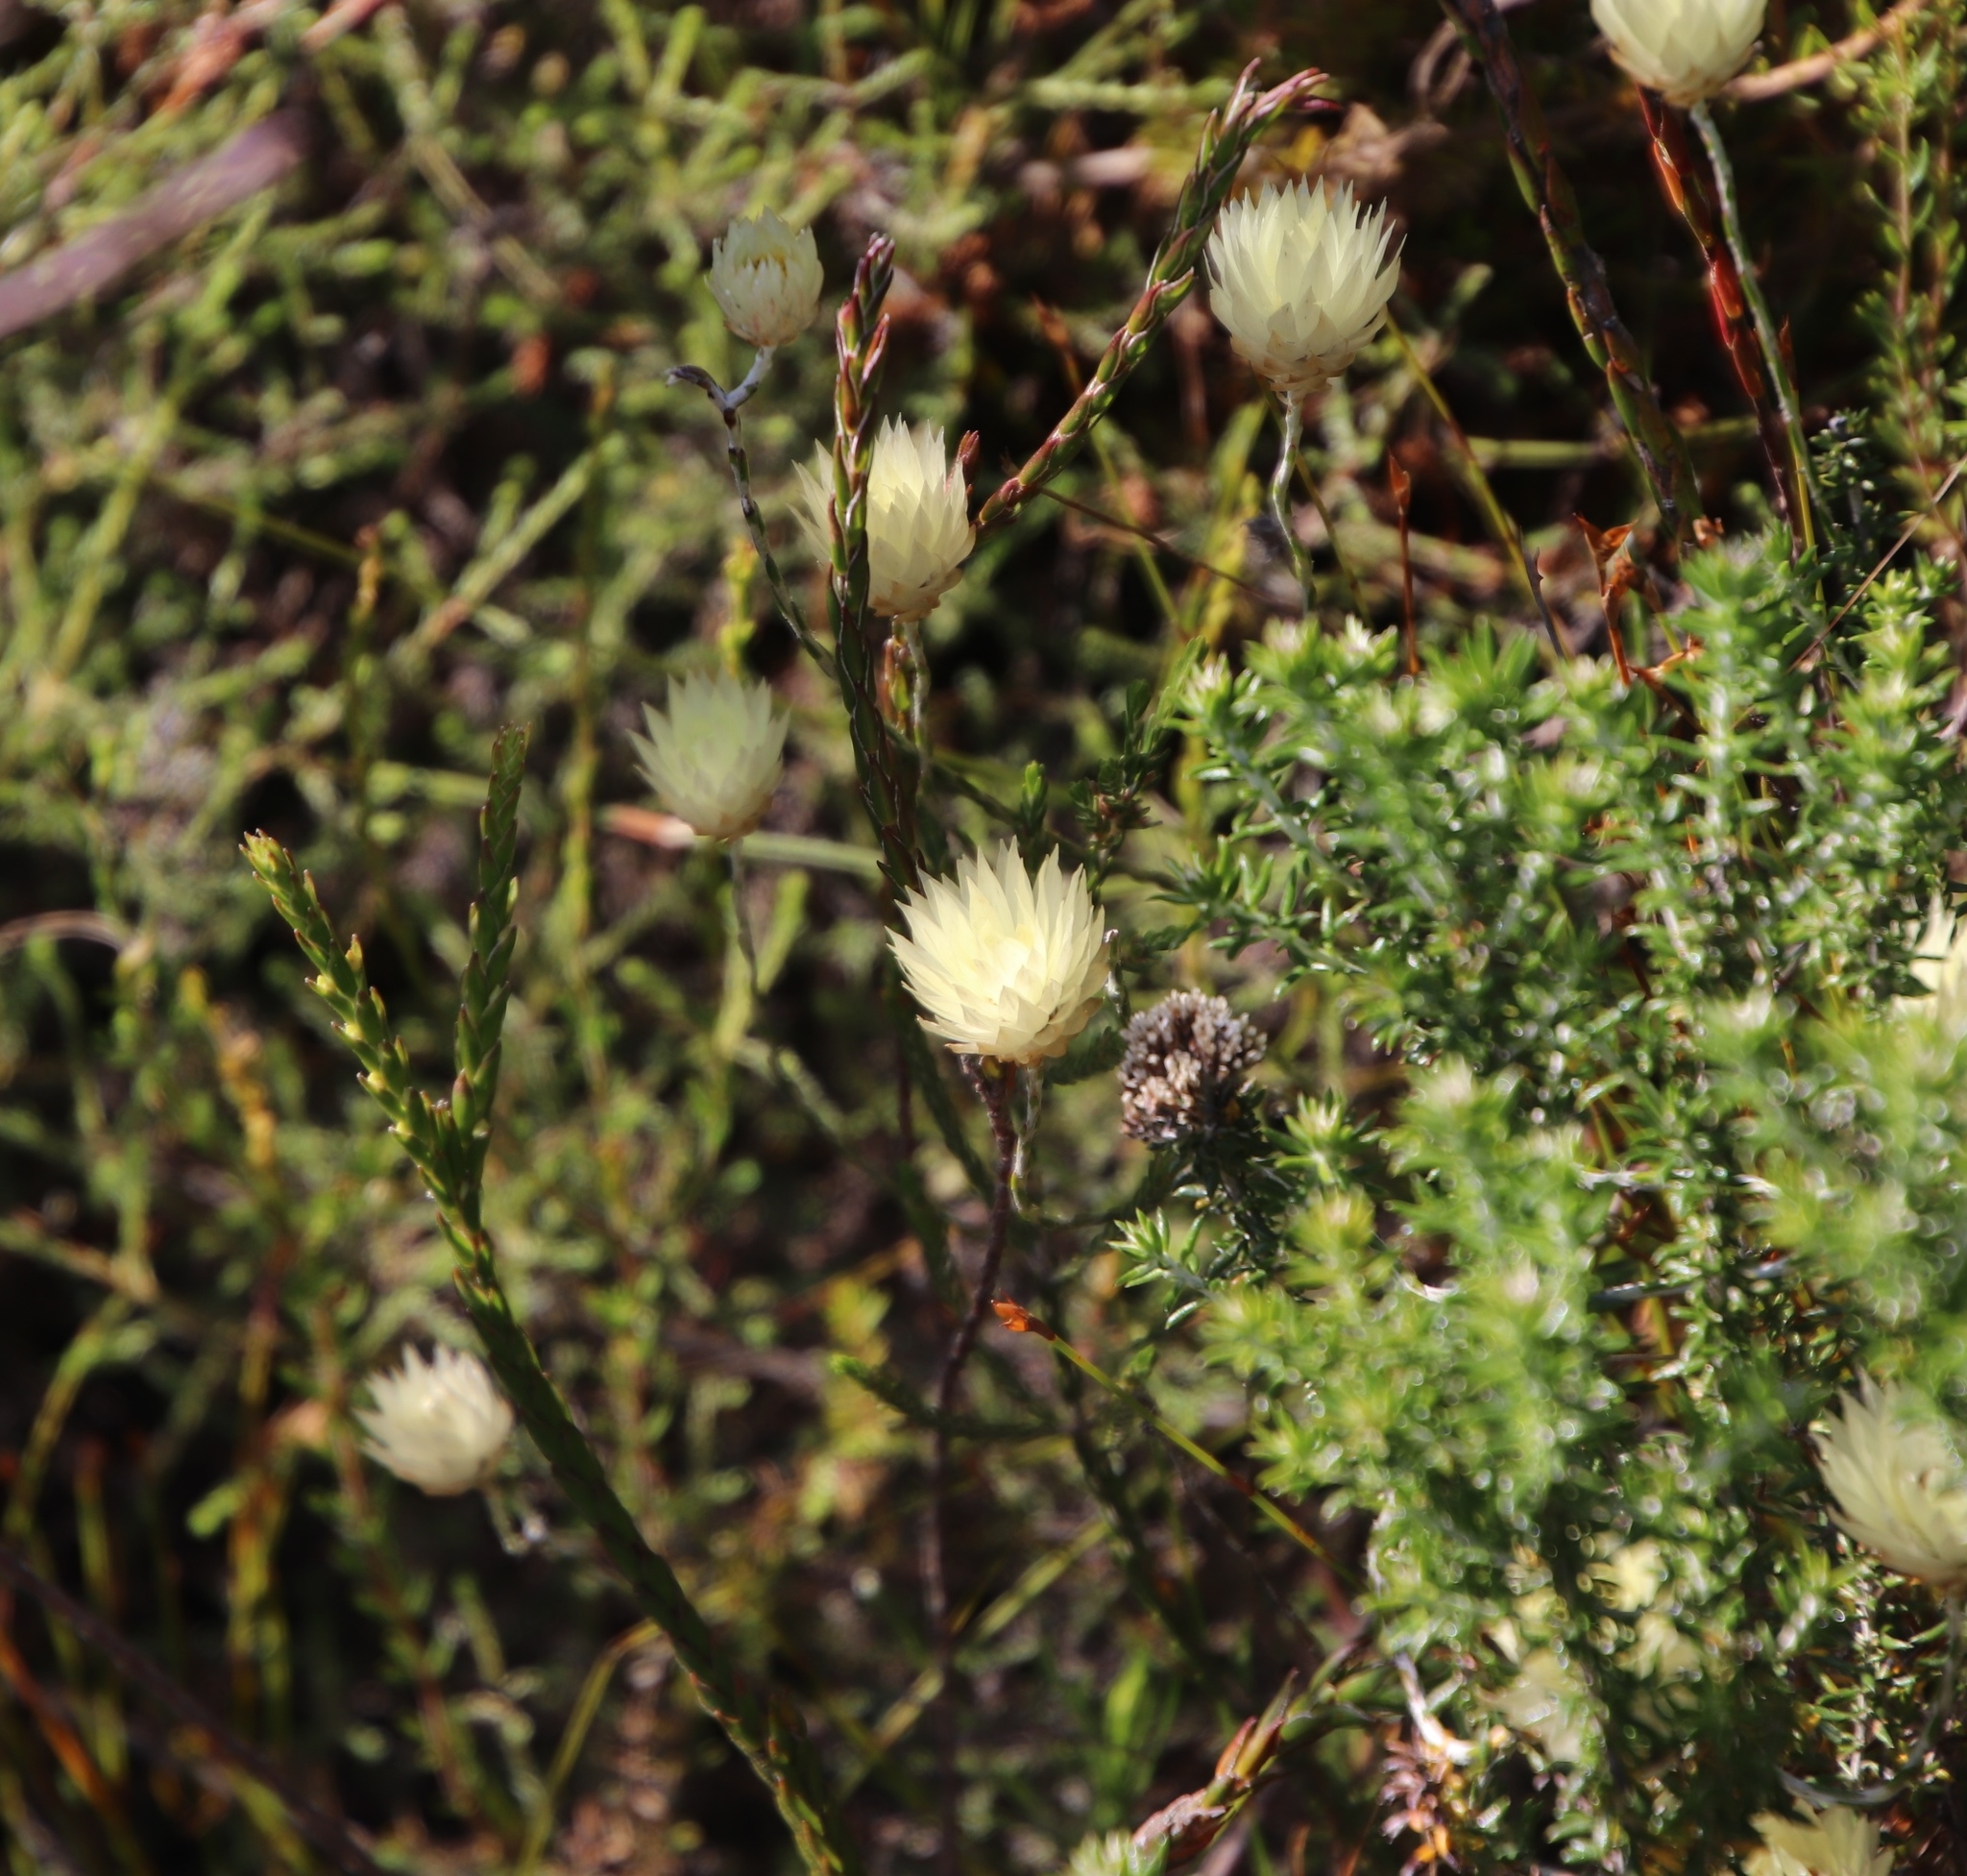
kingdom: Plantae
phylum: Tracheophyta
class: Magnoliopsida
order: Asterales
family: Asteraceae
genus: Edmondia
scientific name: Edmondia sesamoides
